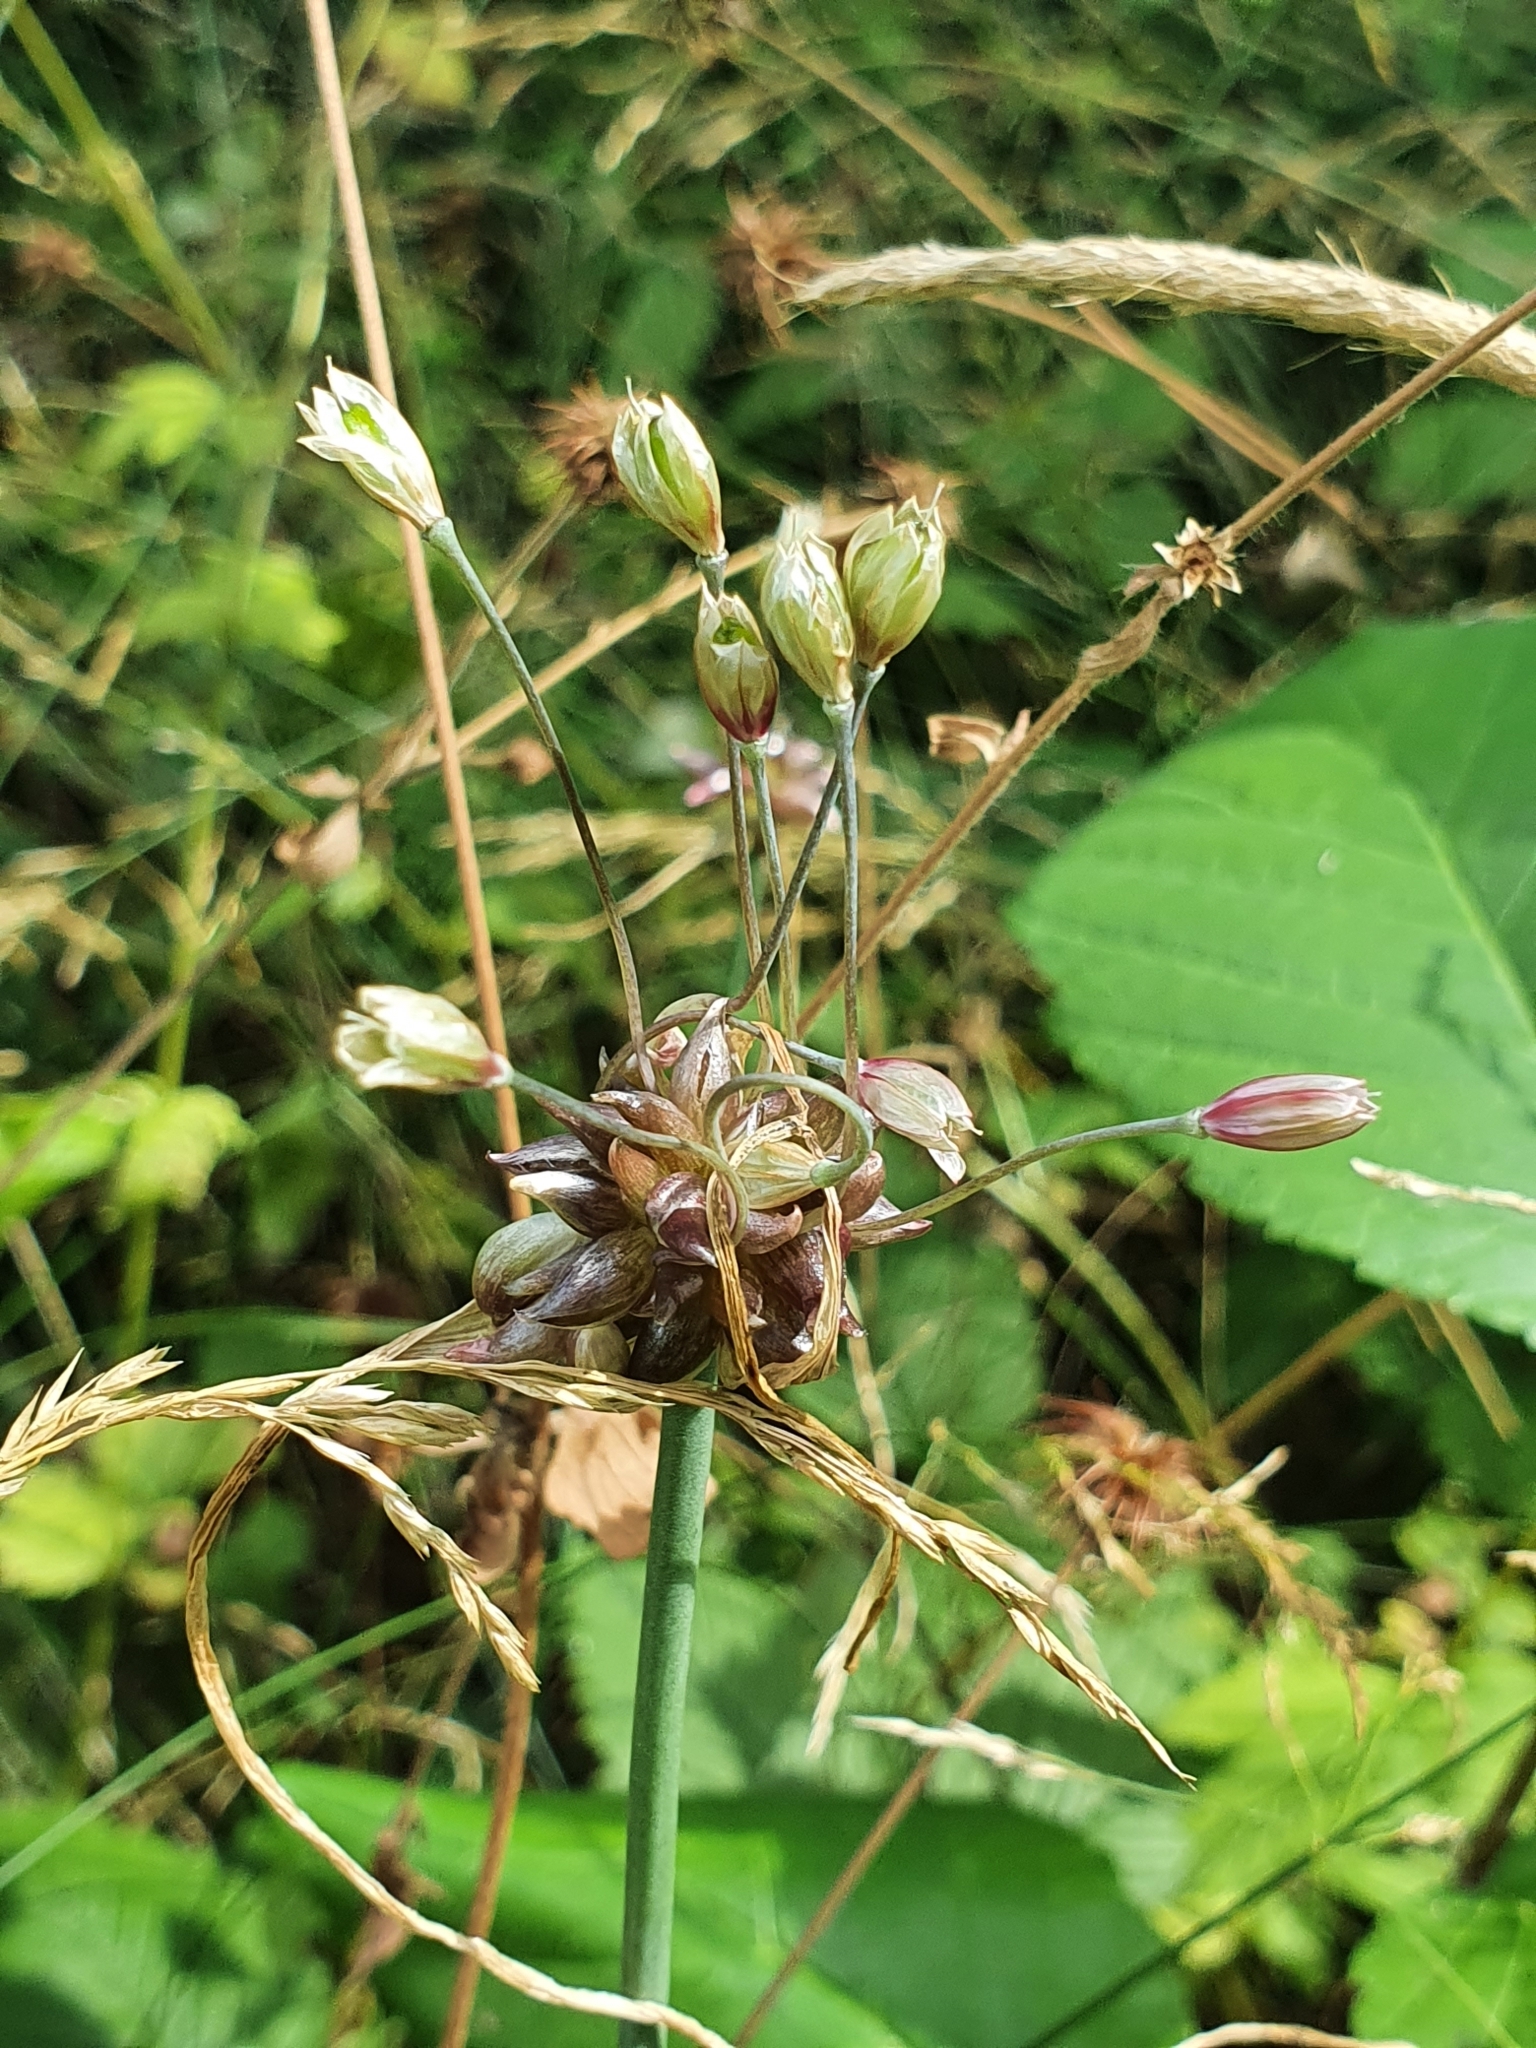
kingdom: Plantae
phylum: Tracheophyta
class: Liliopsida
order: Asparagales
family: Amaryllidaceae
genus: Allium
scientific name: Allium oleraceum
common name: Field garlic
